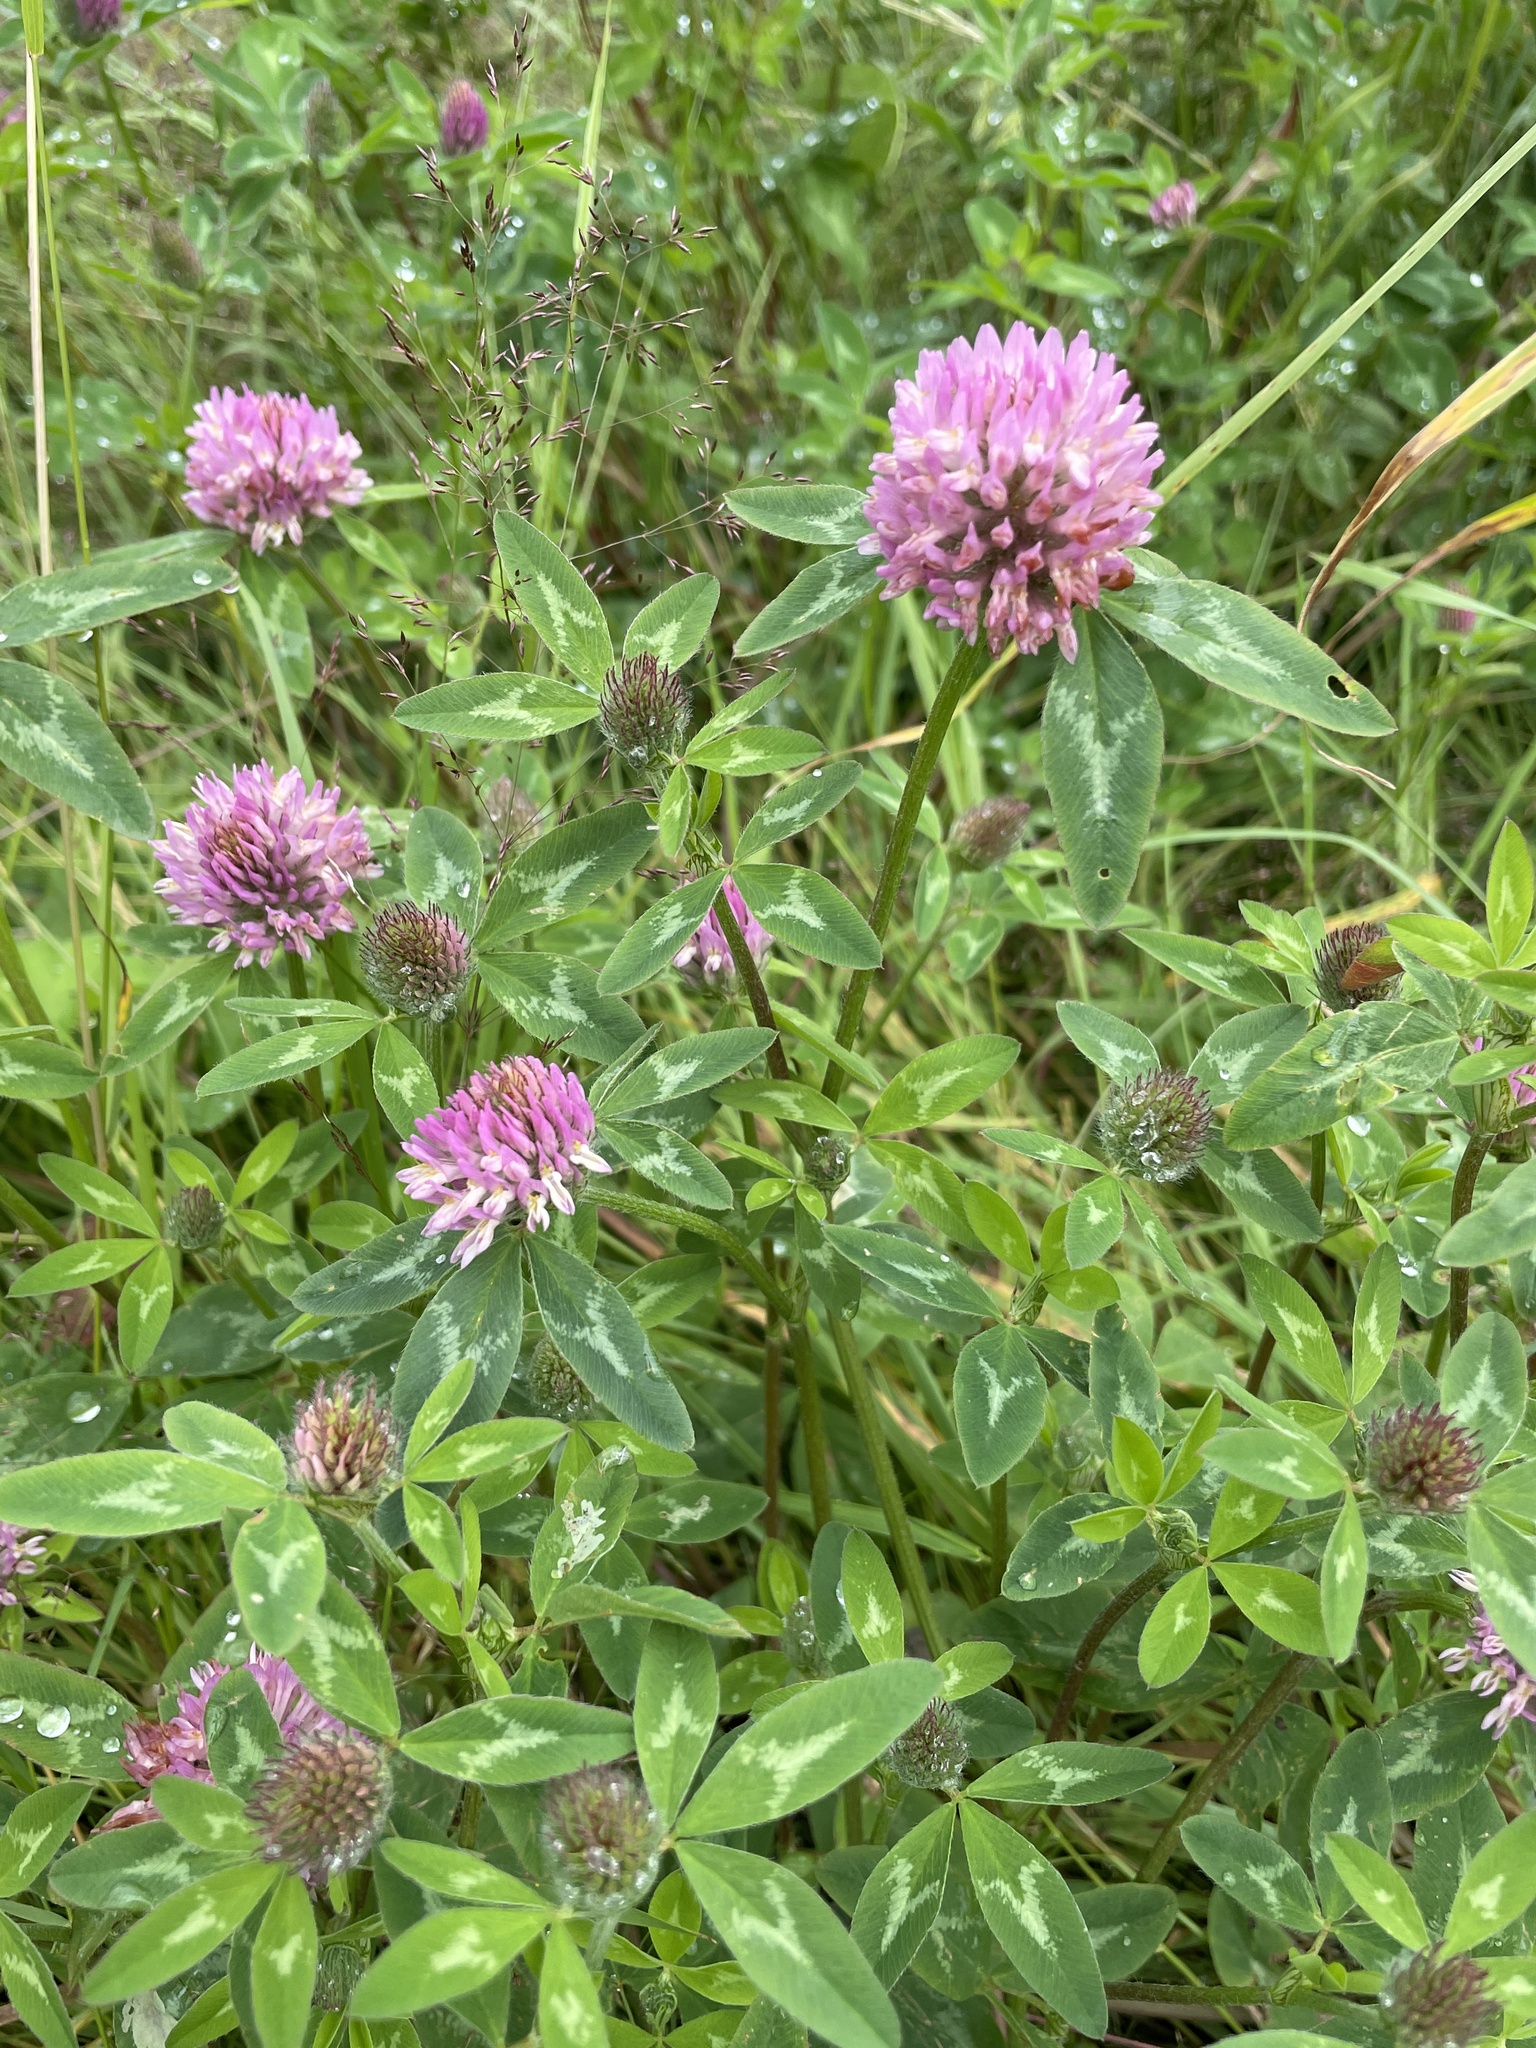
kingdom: Plantae
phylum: Tracheophyta
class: Magnoliopsida
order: Fabales
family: Fabaceae
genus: Trifolium
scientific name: Trifolium pratense
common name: Red clover
